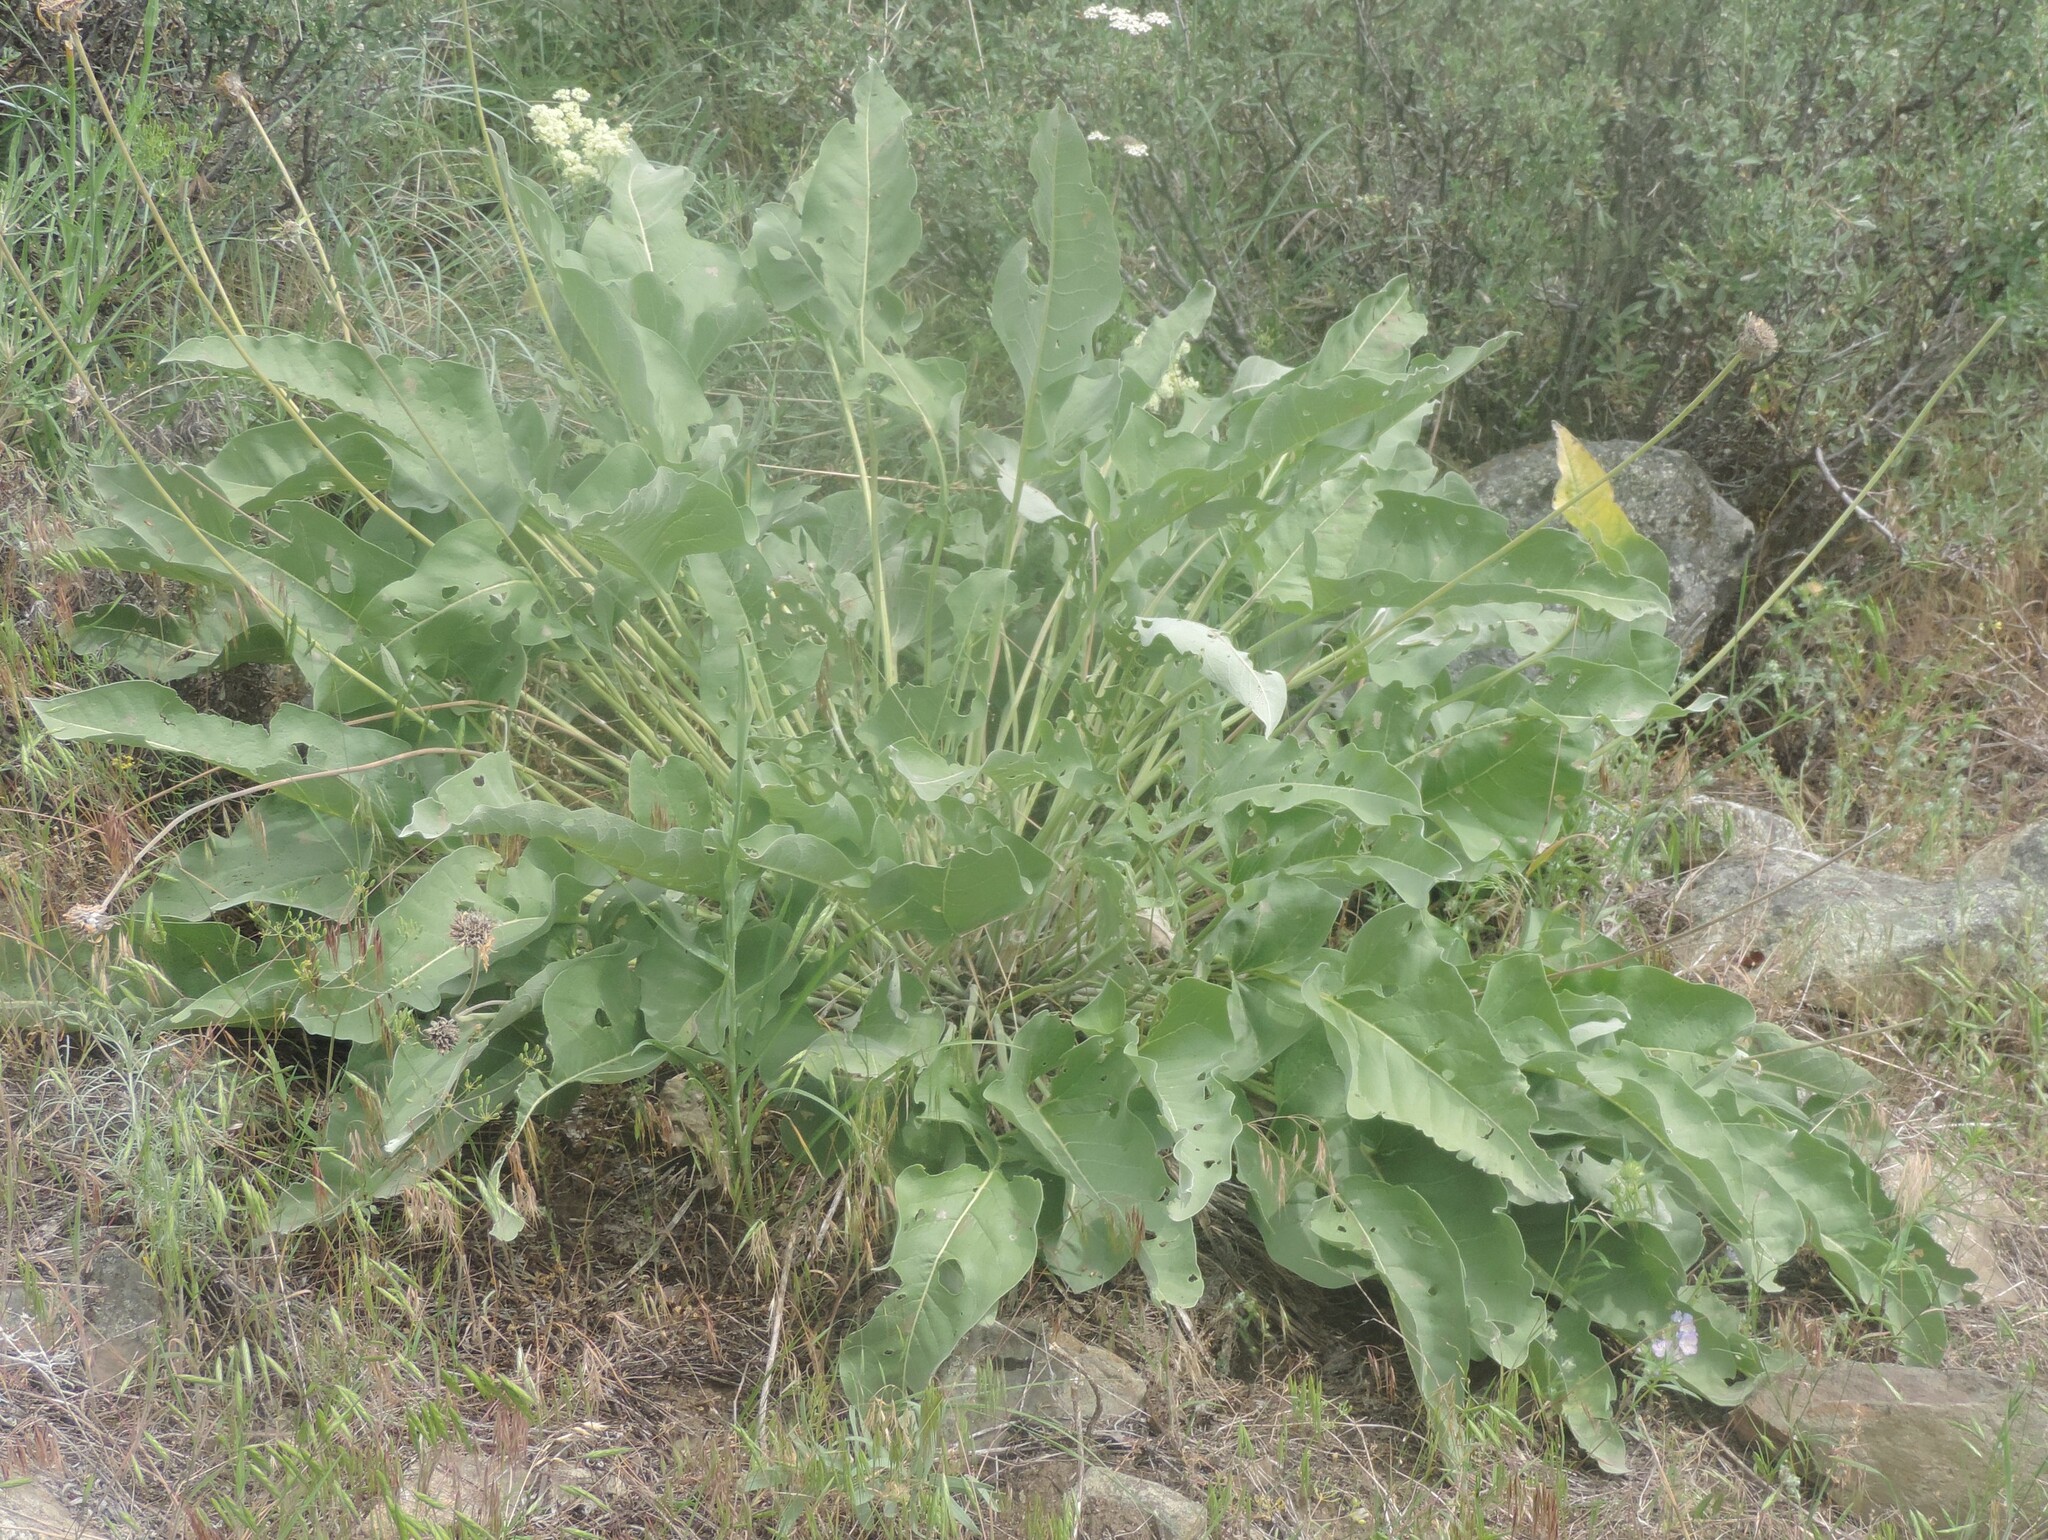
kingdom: Plantae
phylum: Tracheophyta
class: Magnoliopsida
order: Asterales
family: Asteraceae
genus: Wyethia
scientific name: Wyethia sagittata
